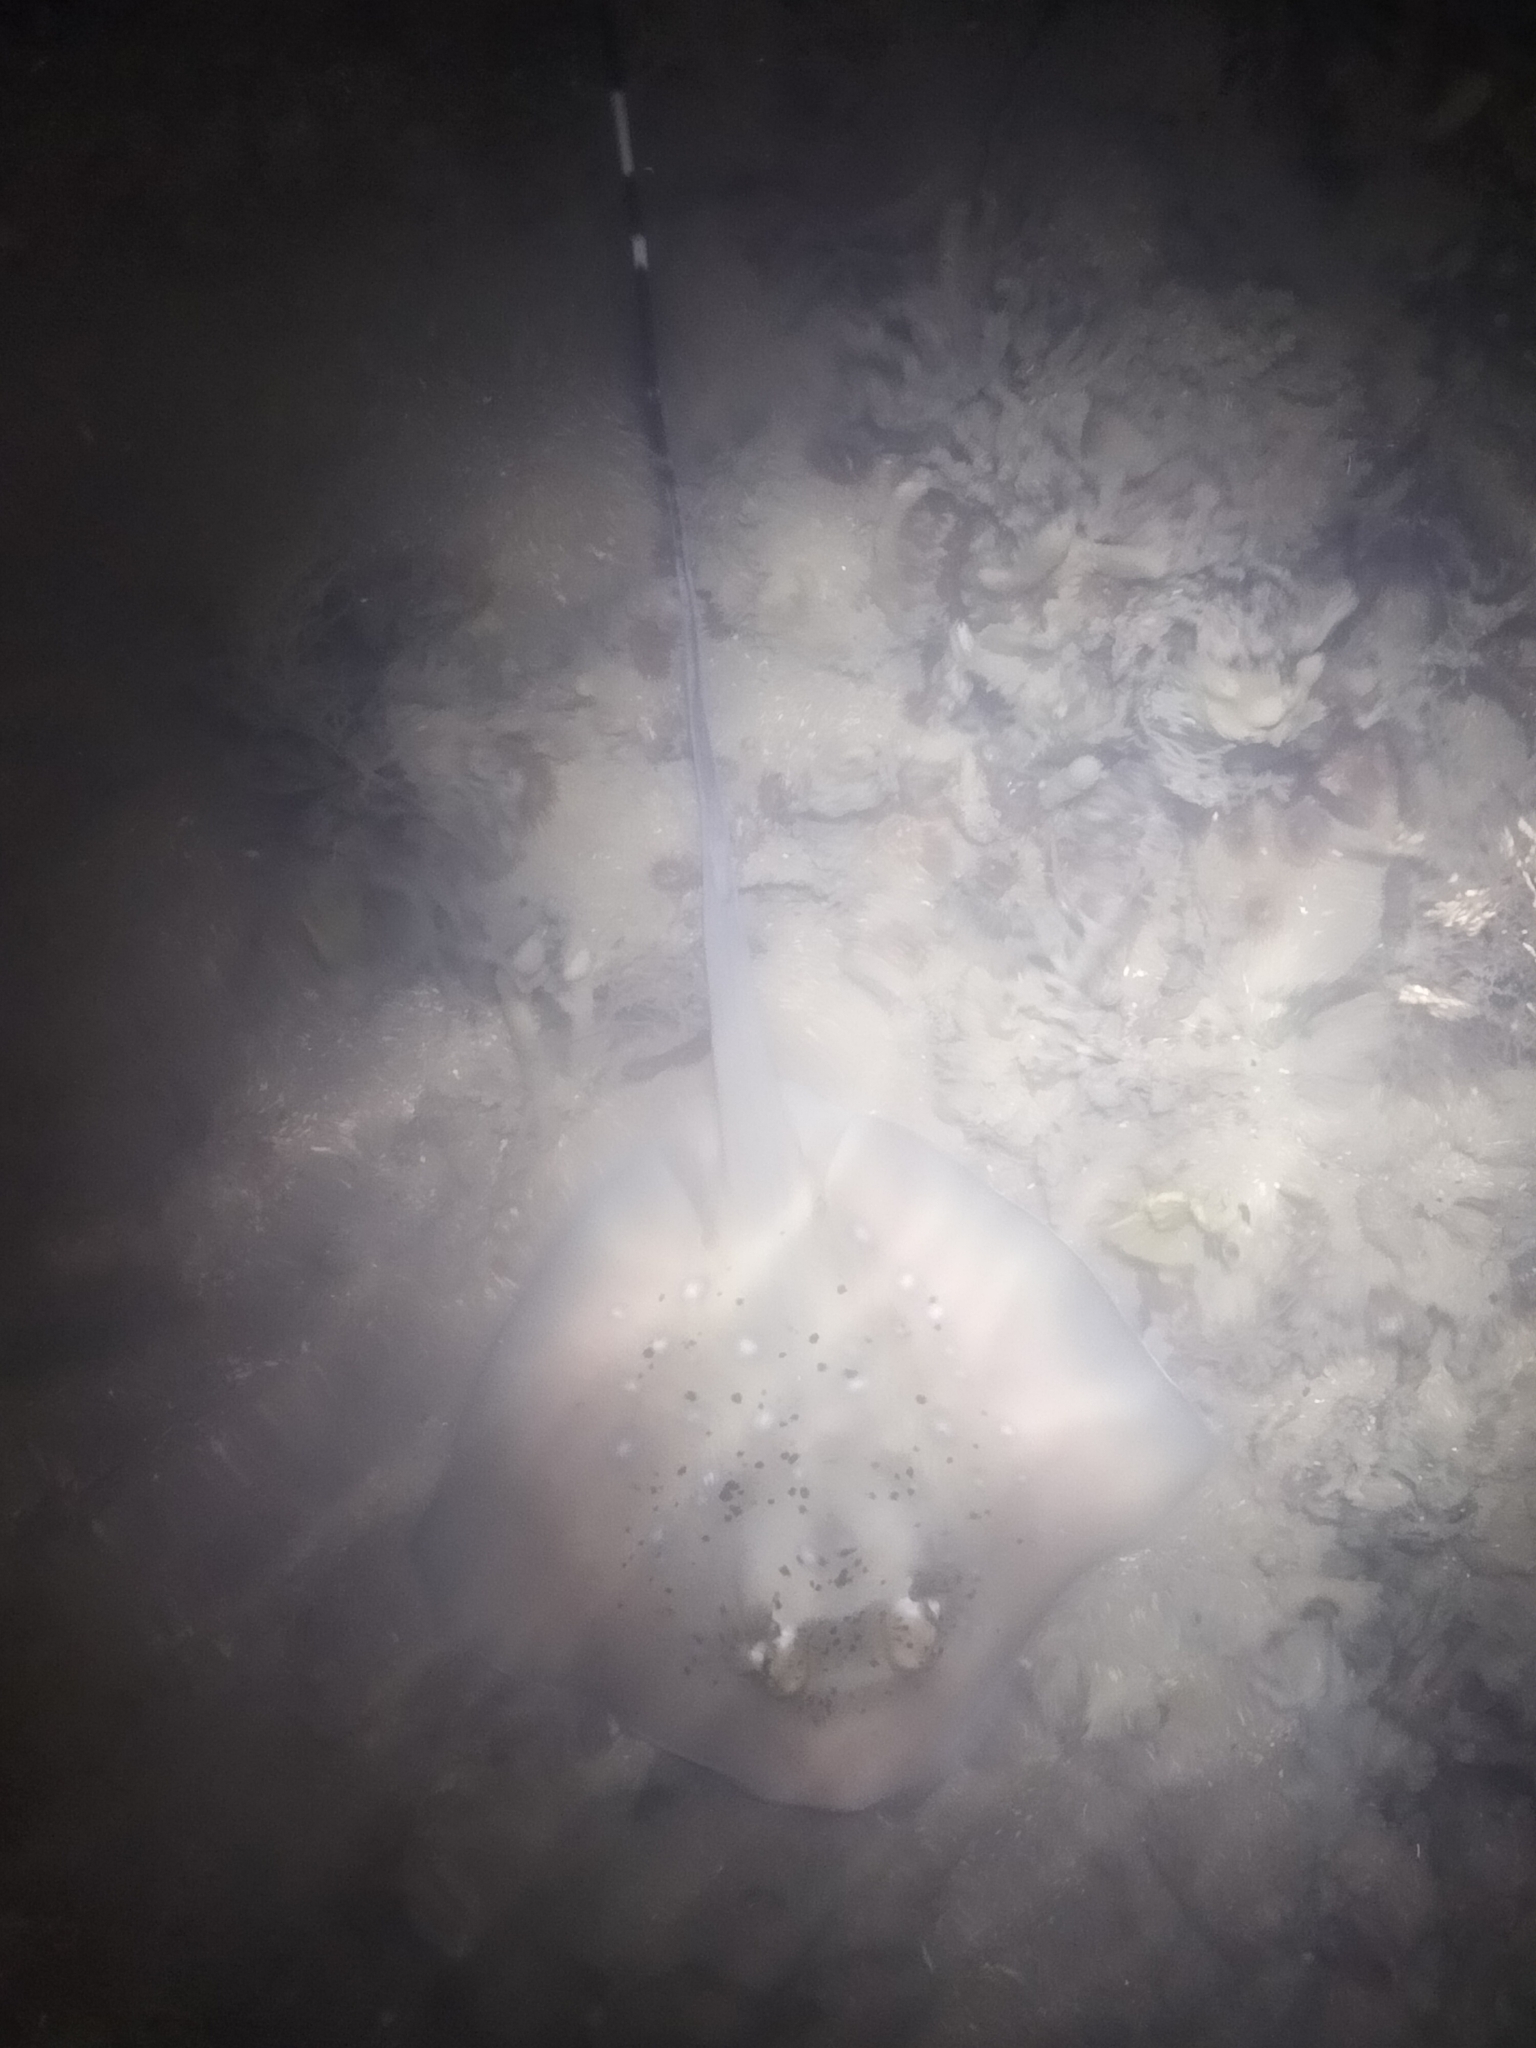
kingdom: Animalia
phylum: Chordata
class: Elasmobranchii
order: Myliobatiformes
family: Dasyatidae
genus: Neotrygon
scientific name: Neotrygon kuhlii
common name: Bluespotted stingray
